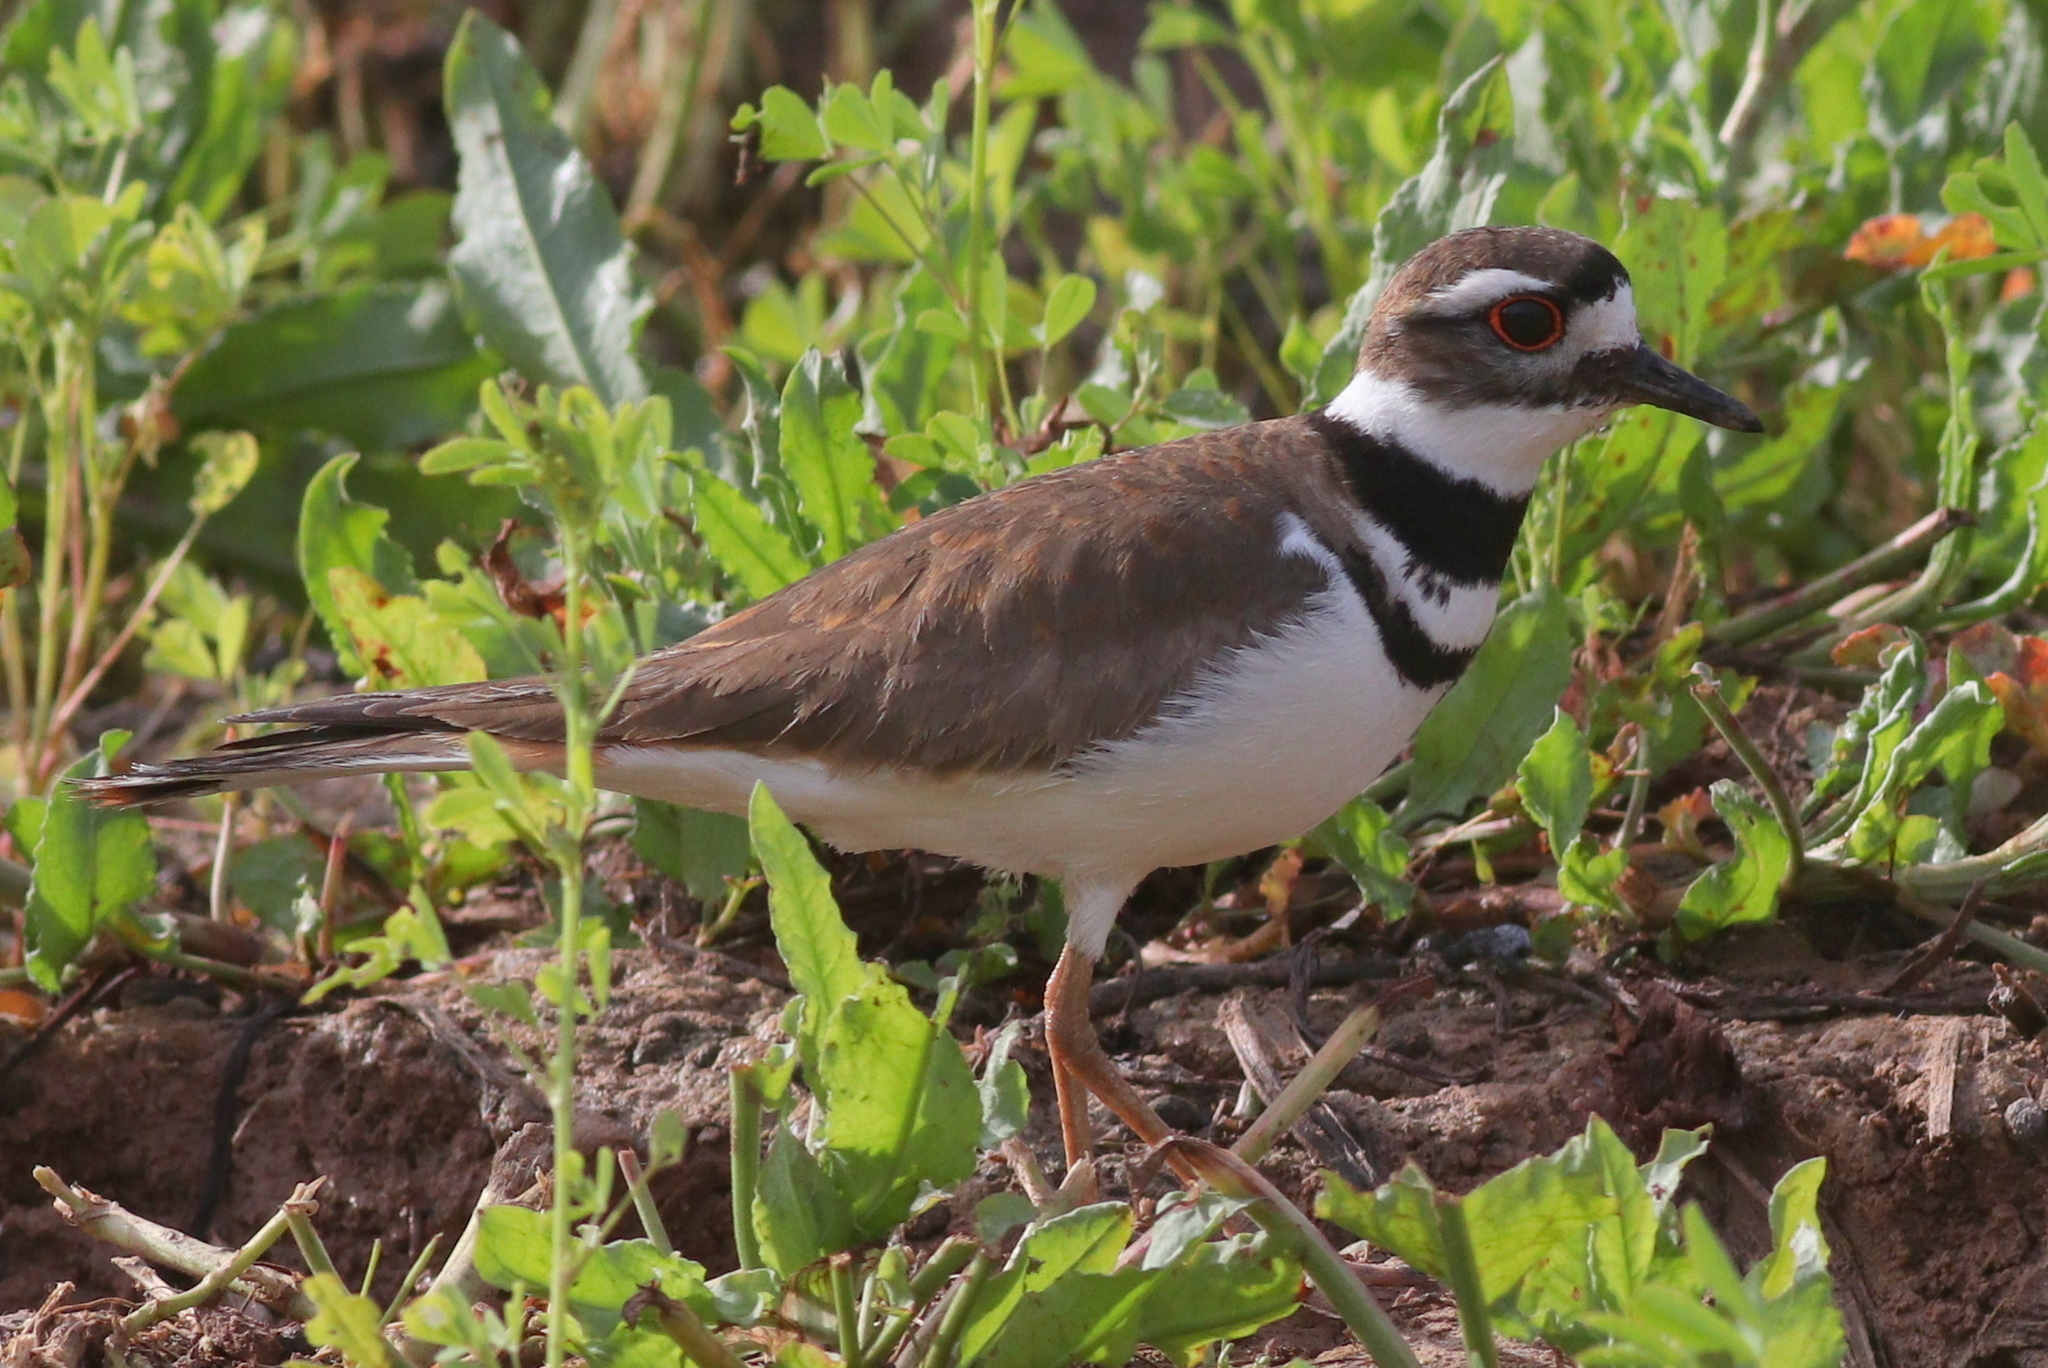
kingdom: Animalia
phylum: Chordata
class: Aves
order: Charadriiformes
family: Charadriidae
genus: Charadrius
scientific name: Charadrius vociferus
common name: Killdeer
